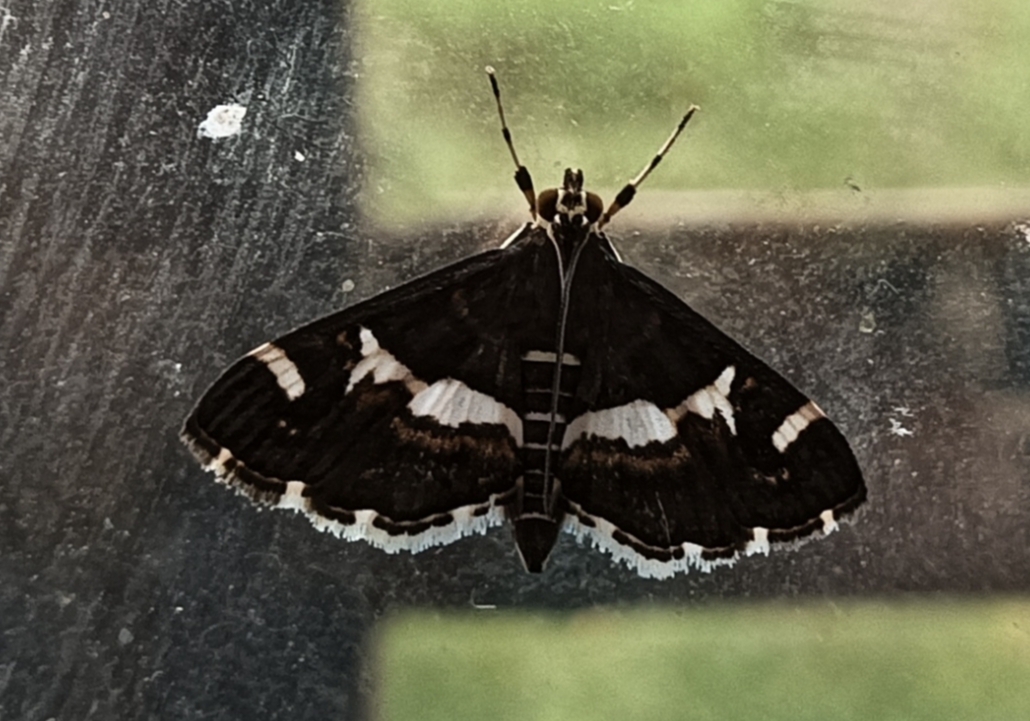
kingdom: Animalia
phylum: Arthropoda
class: Insecta
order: Lepidoptera
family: Crambidae
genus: Spoladea
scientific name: Spoladea recurvalis
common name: Beet webworm moth
